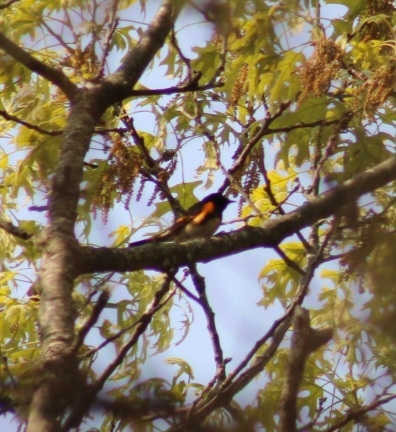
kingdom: Animalia
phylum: Chordata
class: Aves
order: Passeriformes
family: Parulidae
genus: Setophaga
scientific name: Setophaga ruticilla
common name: American redstart
